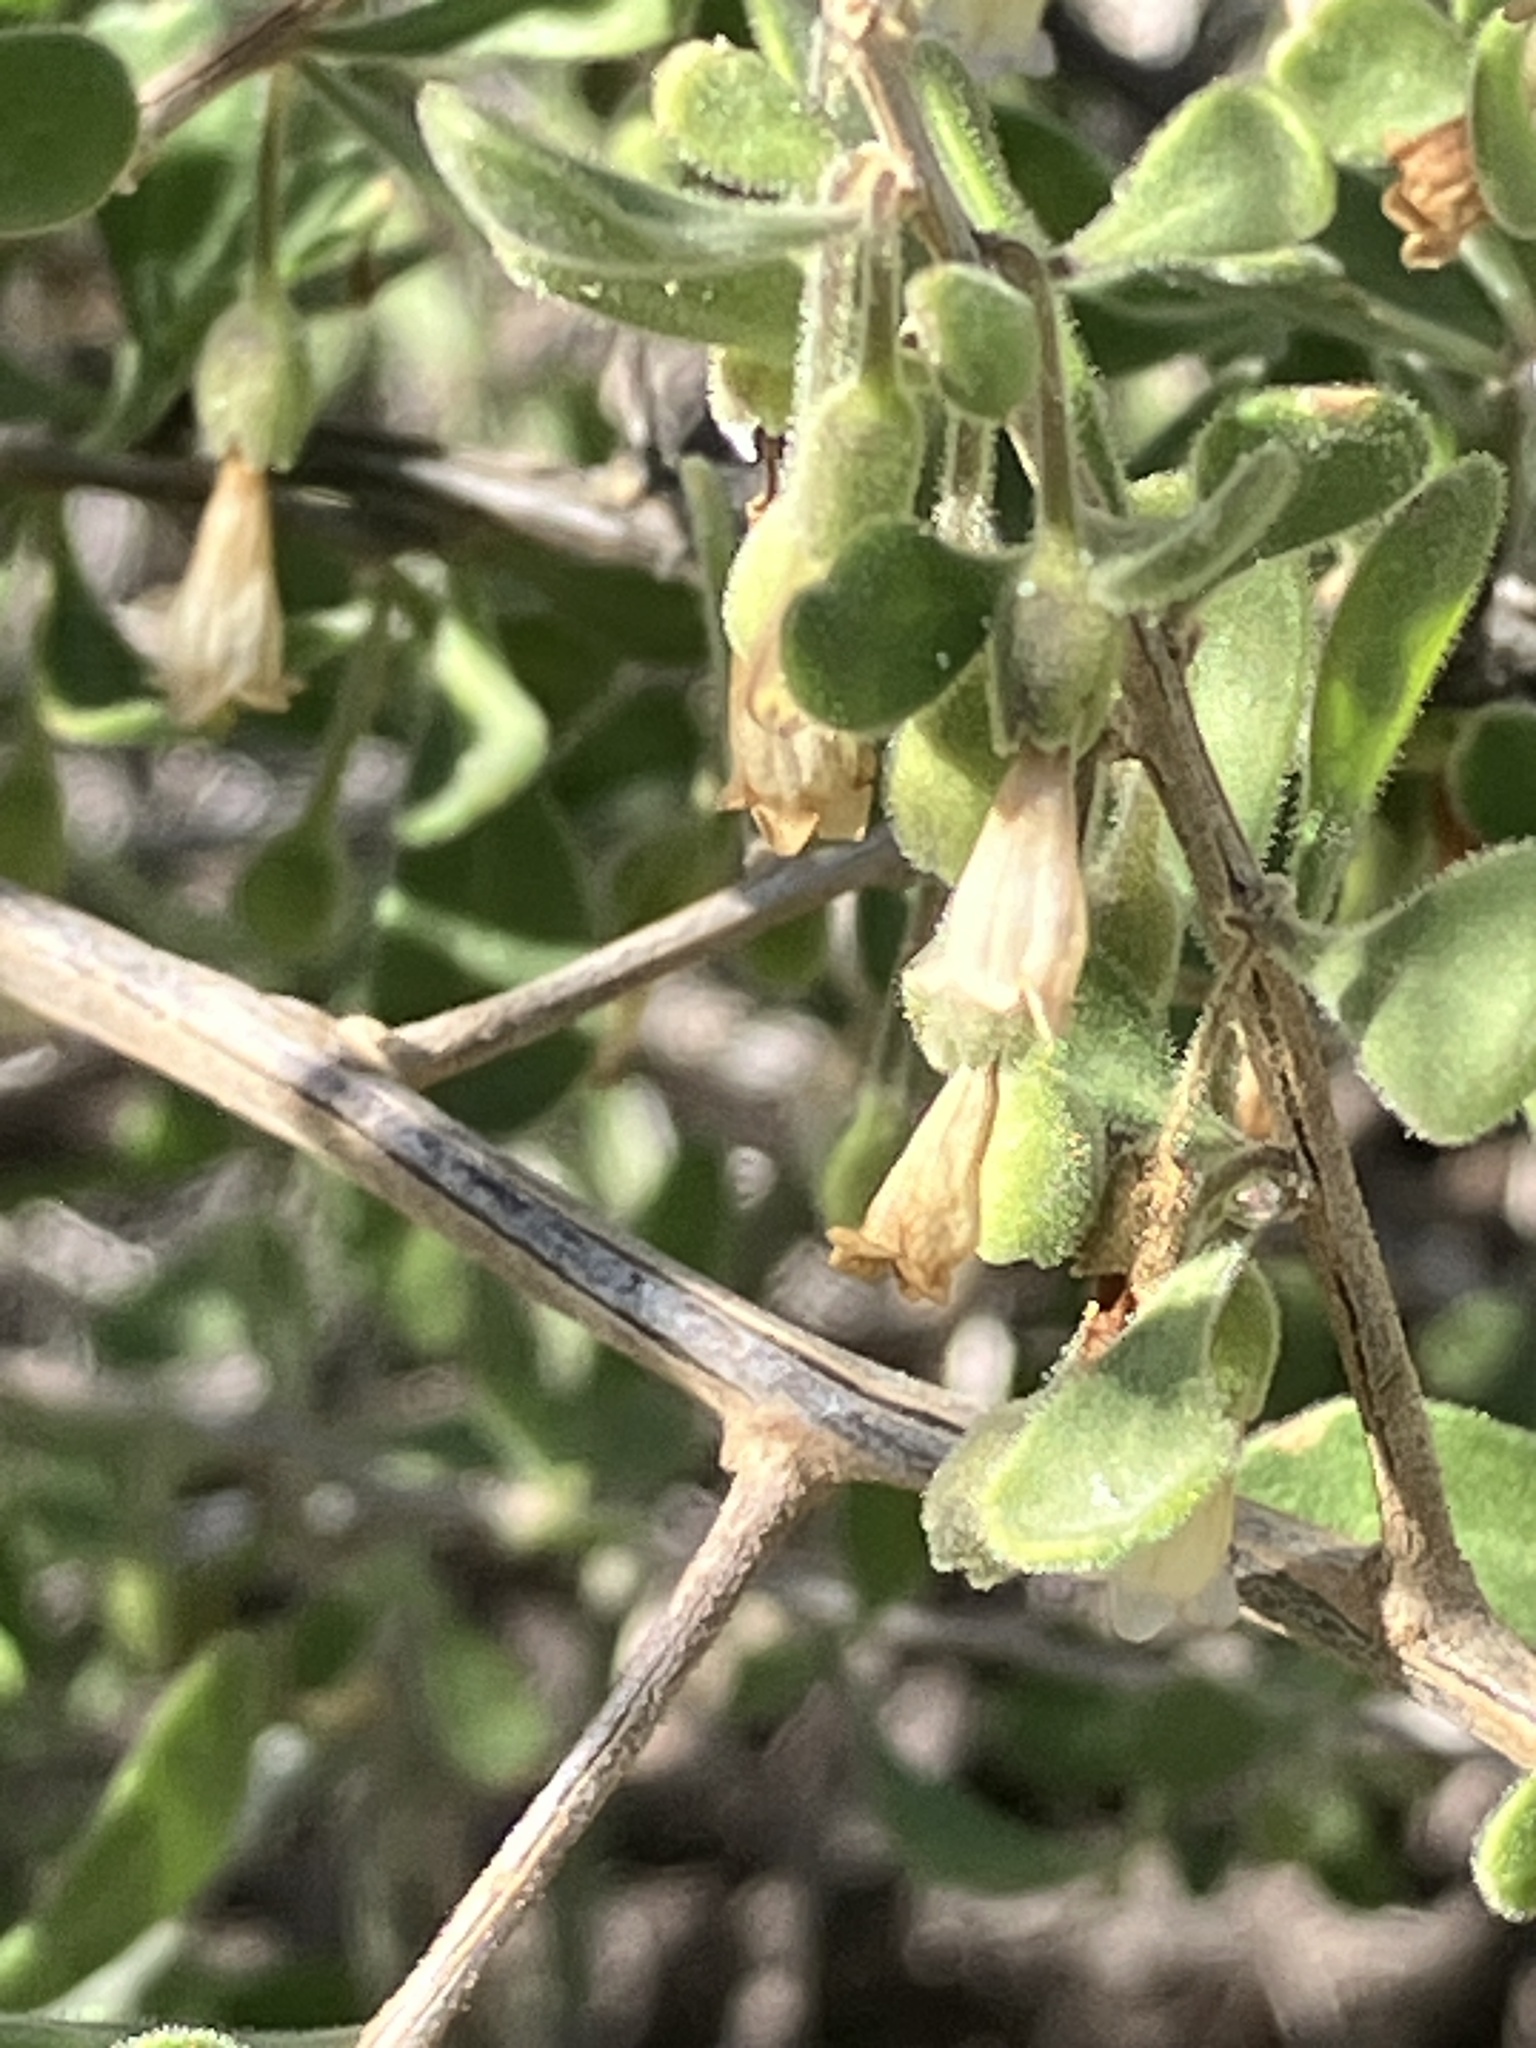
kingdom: Plantae
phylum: Tracheophyta
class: Magnoliopsida
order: Solanales
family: Solanaceae
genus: Lycium
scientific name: Lycium exsertum
